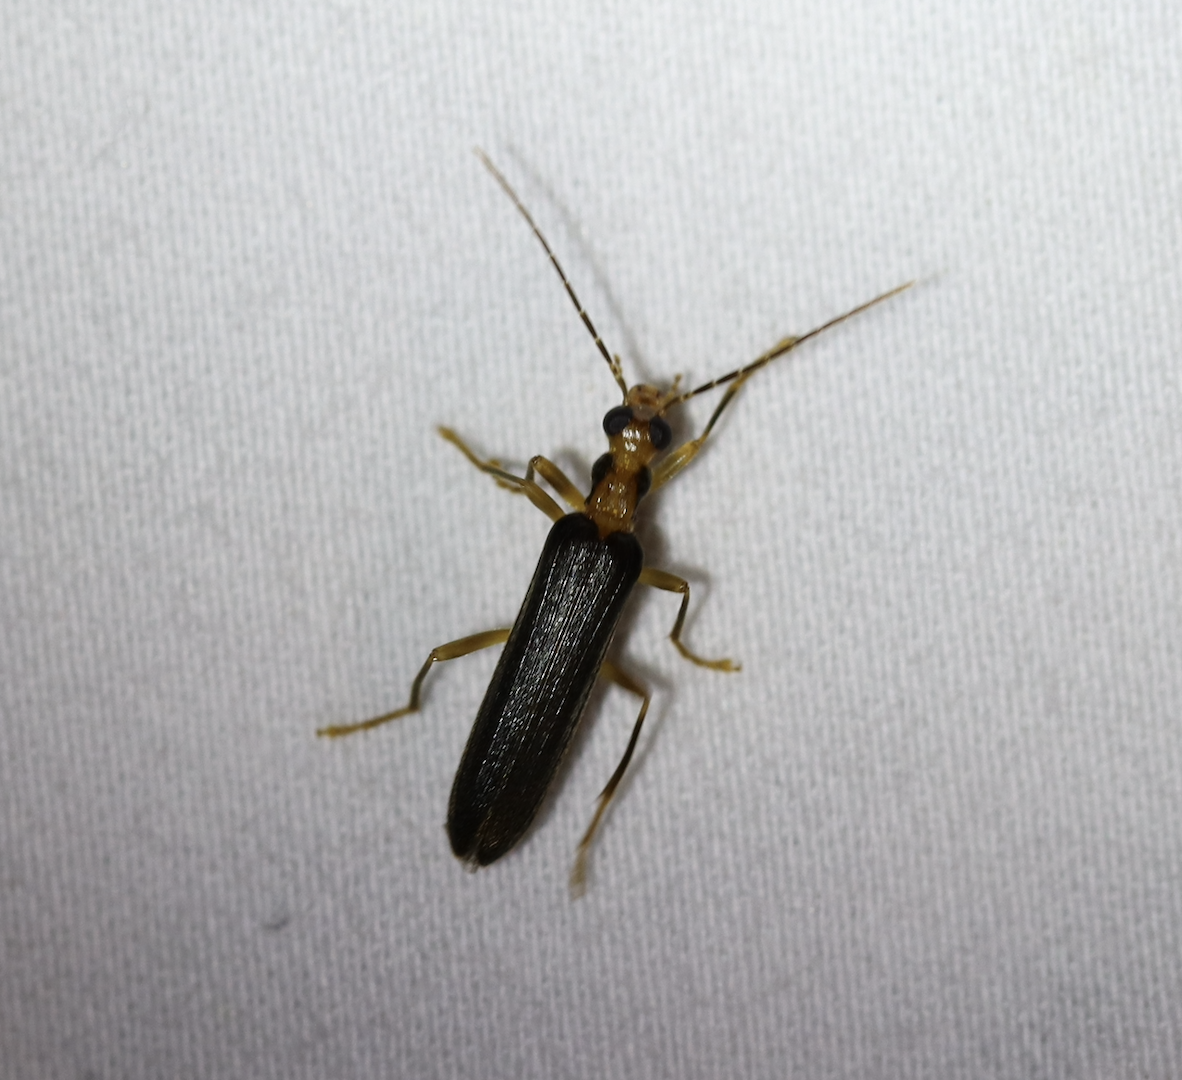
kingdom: Animalia
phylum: Arthropoda
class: Insecta
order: Coleoptera
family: Oedemeridae
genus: Nacerdes
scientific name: Nacerdes carniolica
